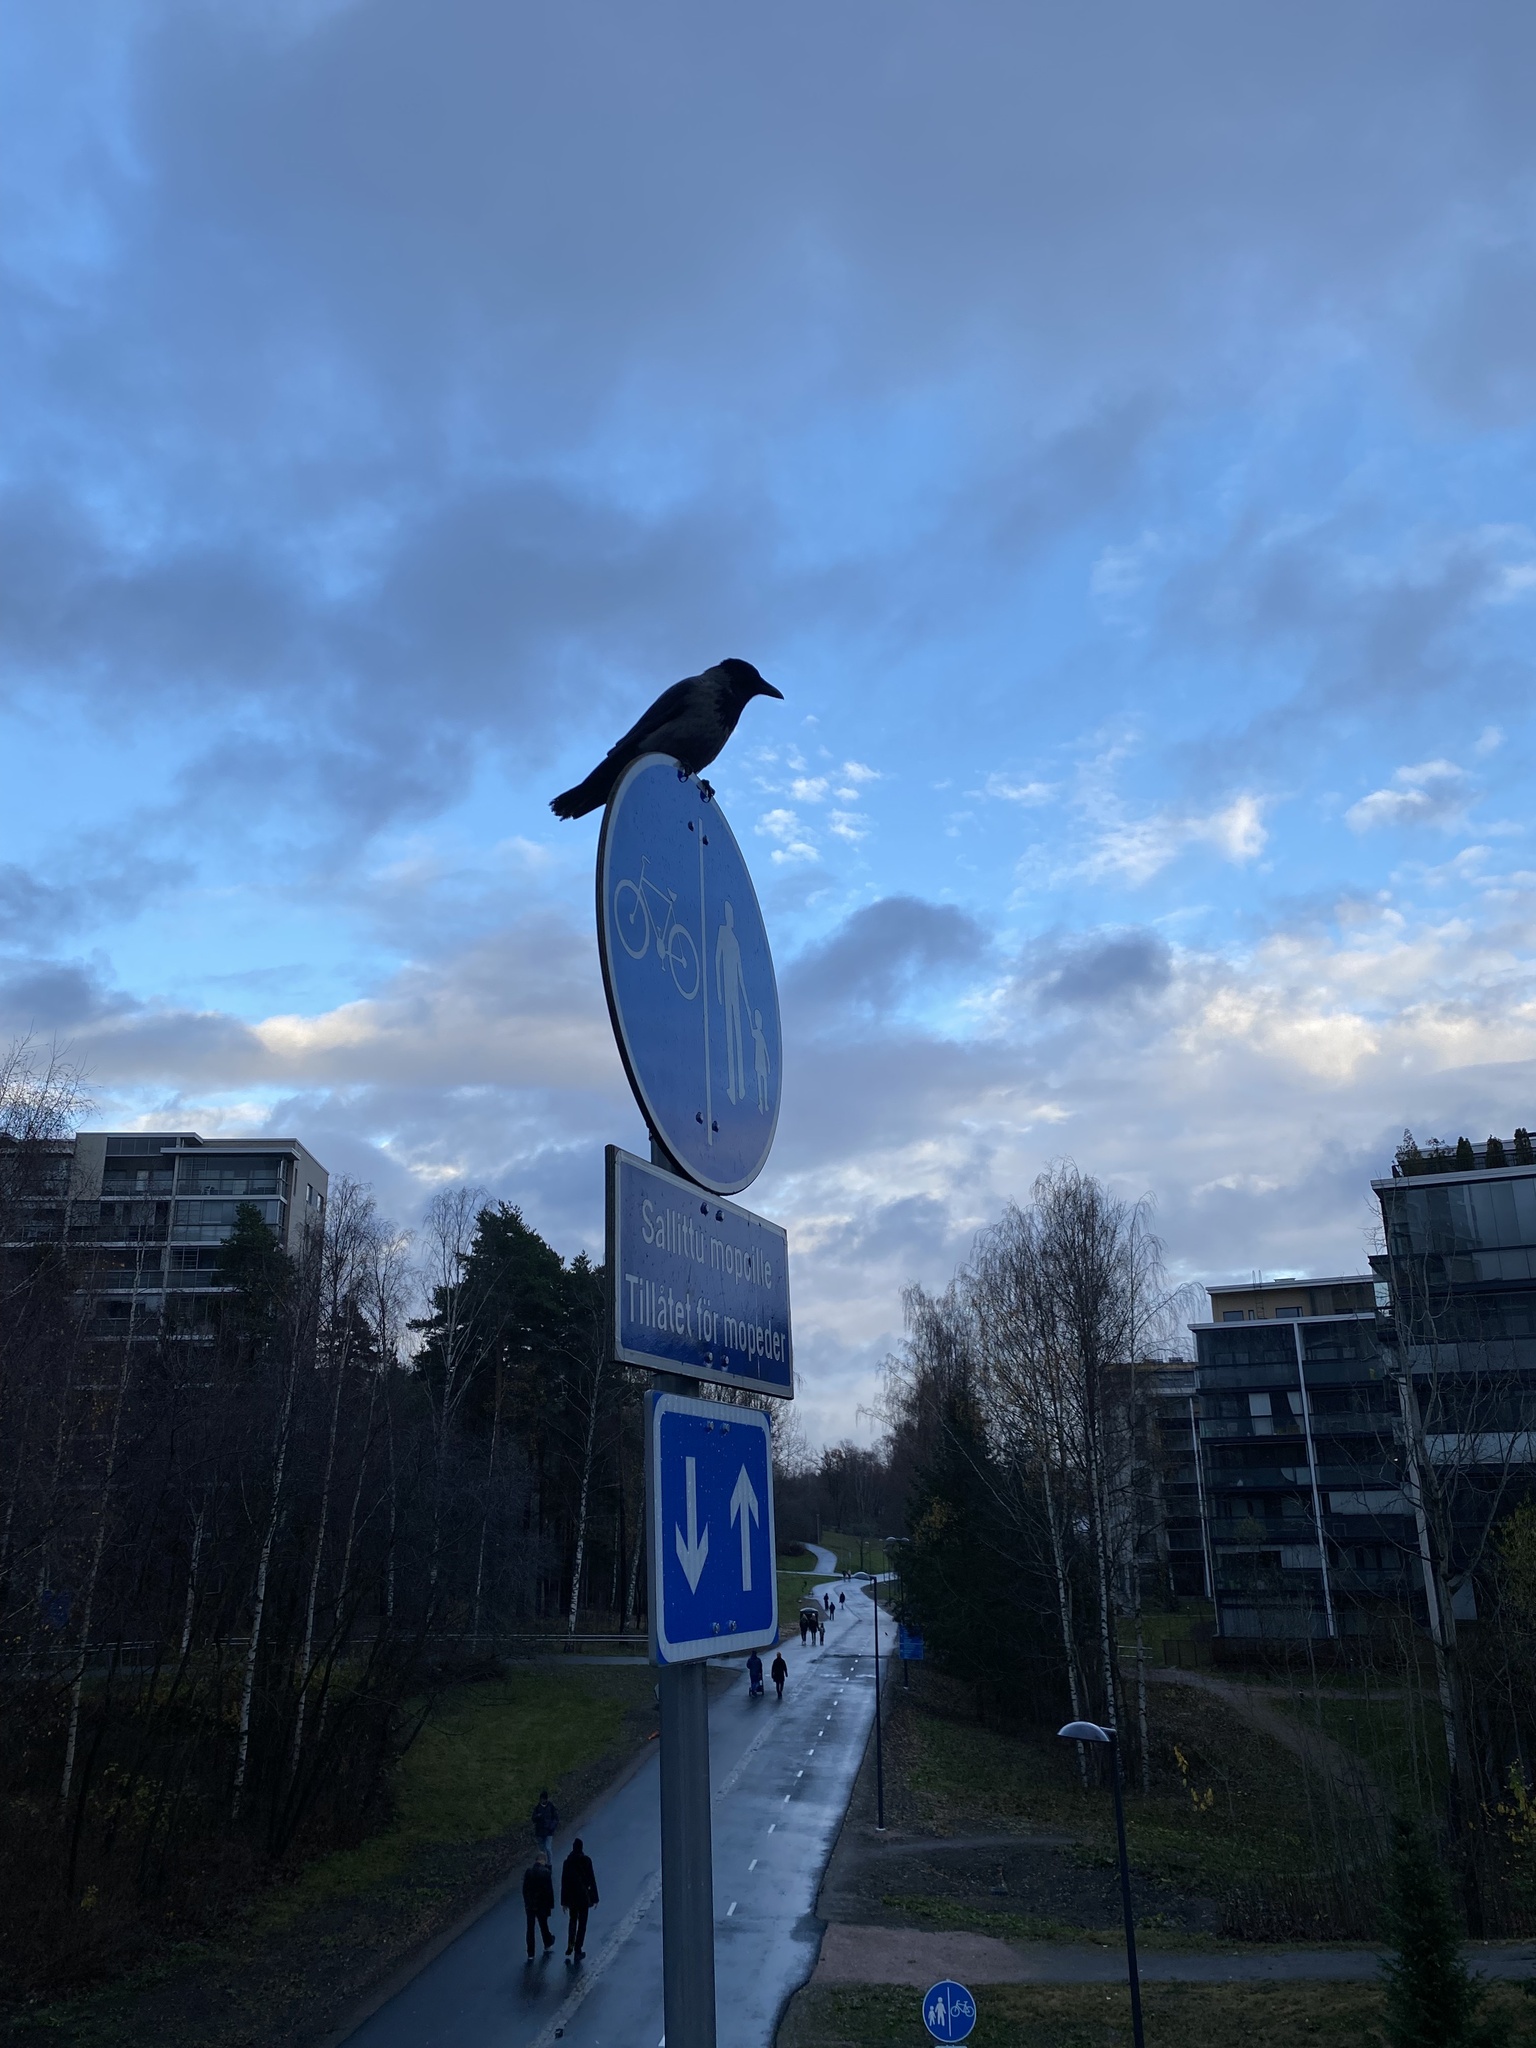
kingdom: Animalia
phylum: Chordata
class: Aves
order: Passeriformes
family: Corvidae
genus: Corvus
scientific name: Corvus cornix
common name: Hooded crow
